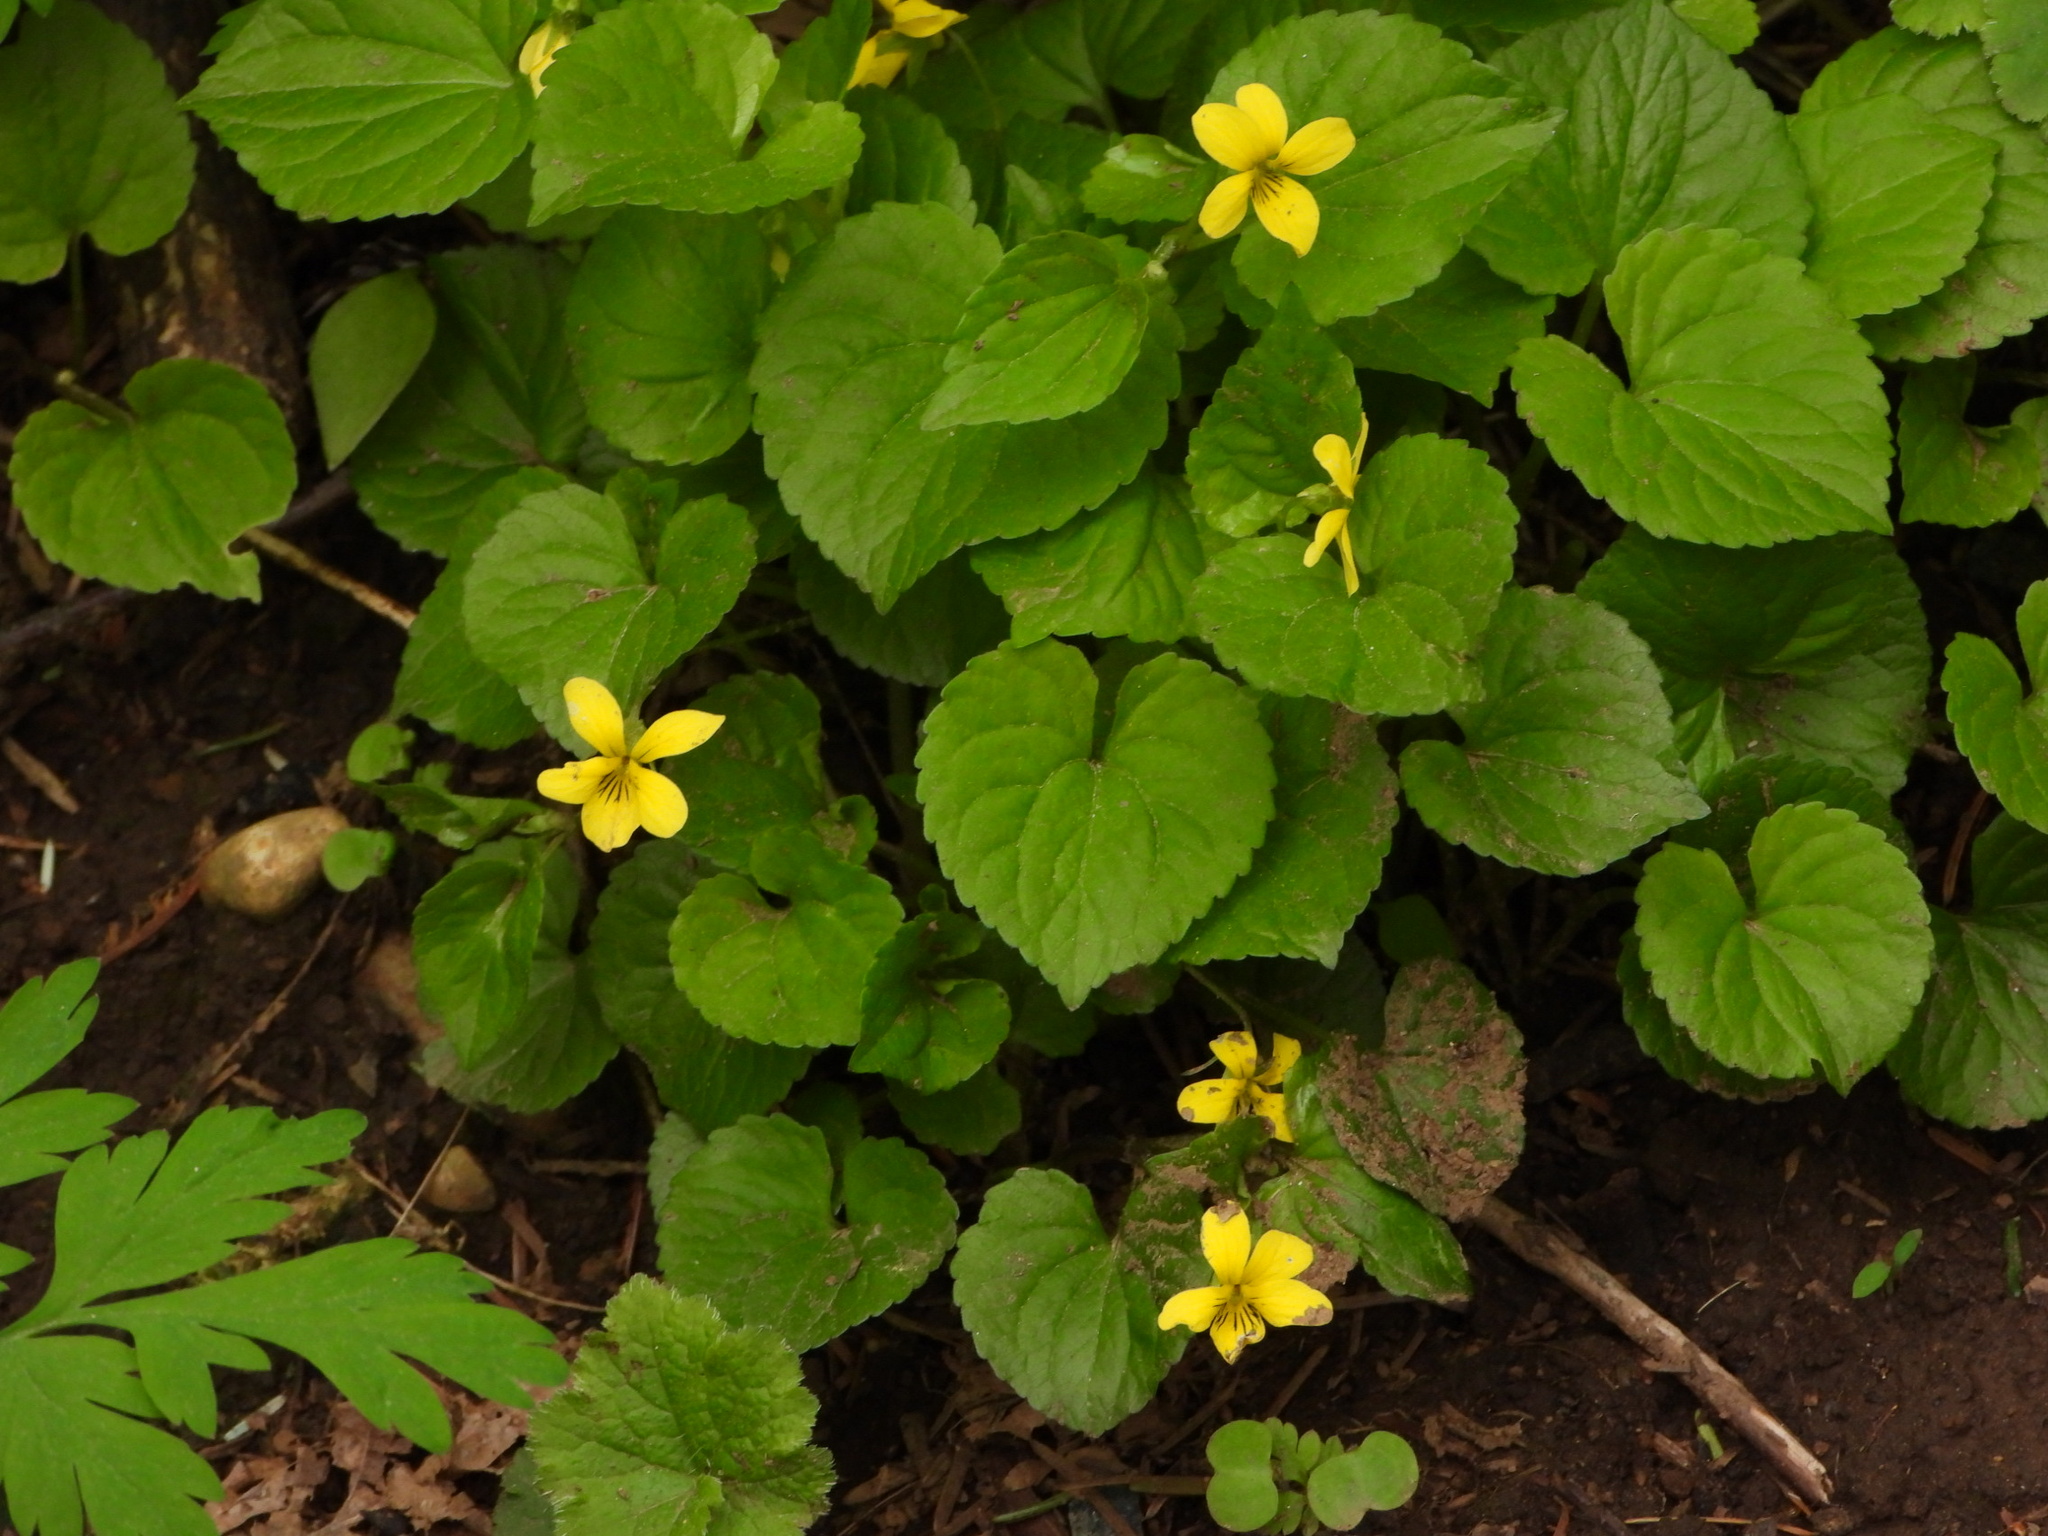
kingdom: Plantae
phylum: Tracheophyta
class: Magnoliopsida
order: Malpighiales
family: Violaceae
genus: Viola
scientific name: Viola glabella
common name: Stream violet
